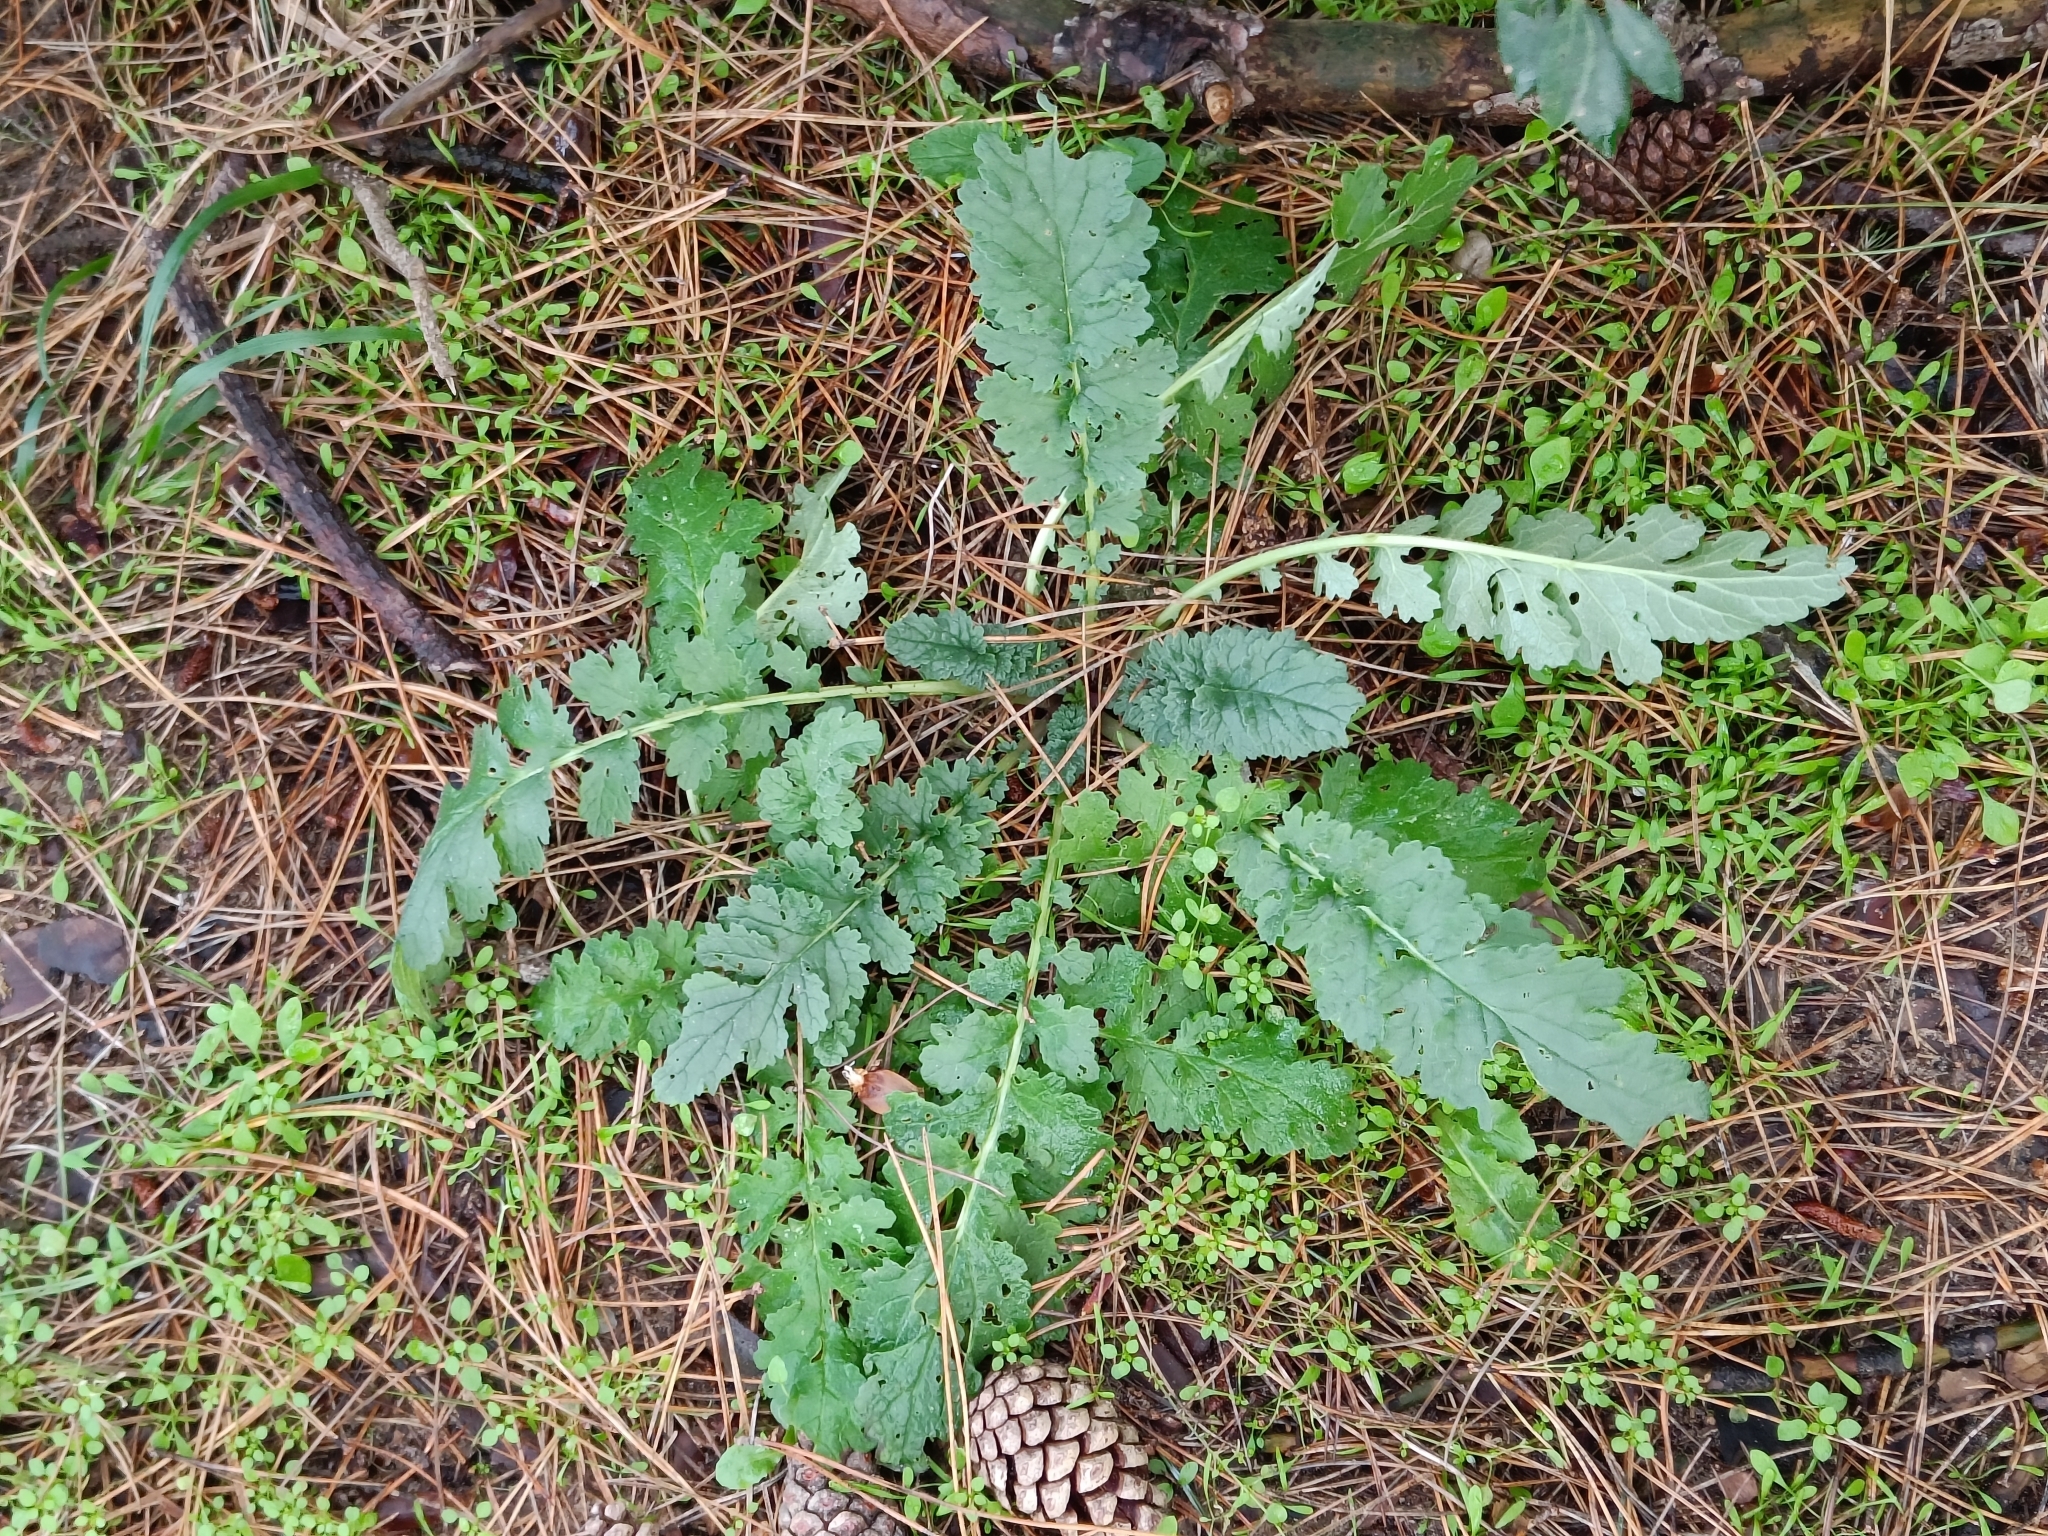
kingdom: Plantae
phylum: Tracheophyta
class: Magnoliopsida
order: Asterales
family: Asteraceae
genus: Jacobaea
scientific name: Jacobaea vulgaris
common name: Stinking willie
